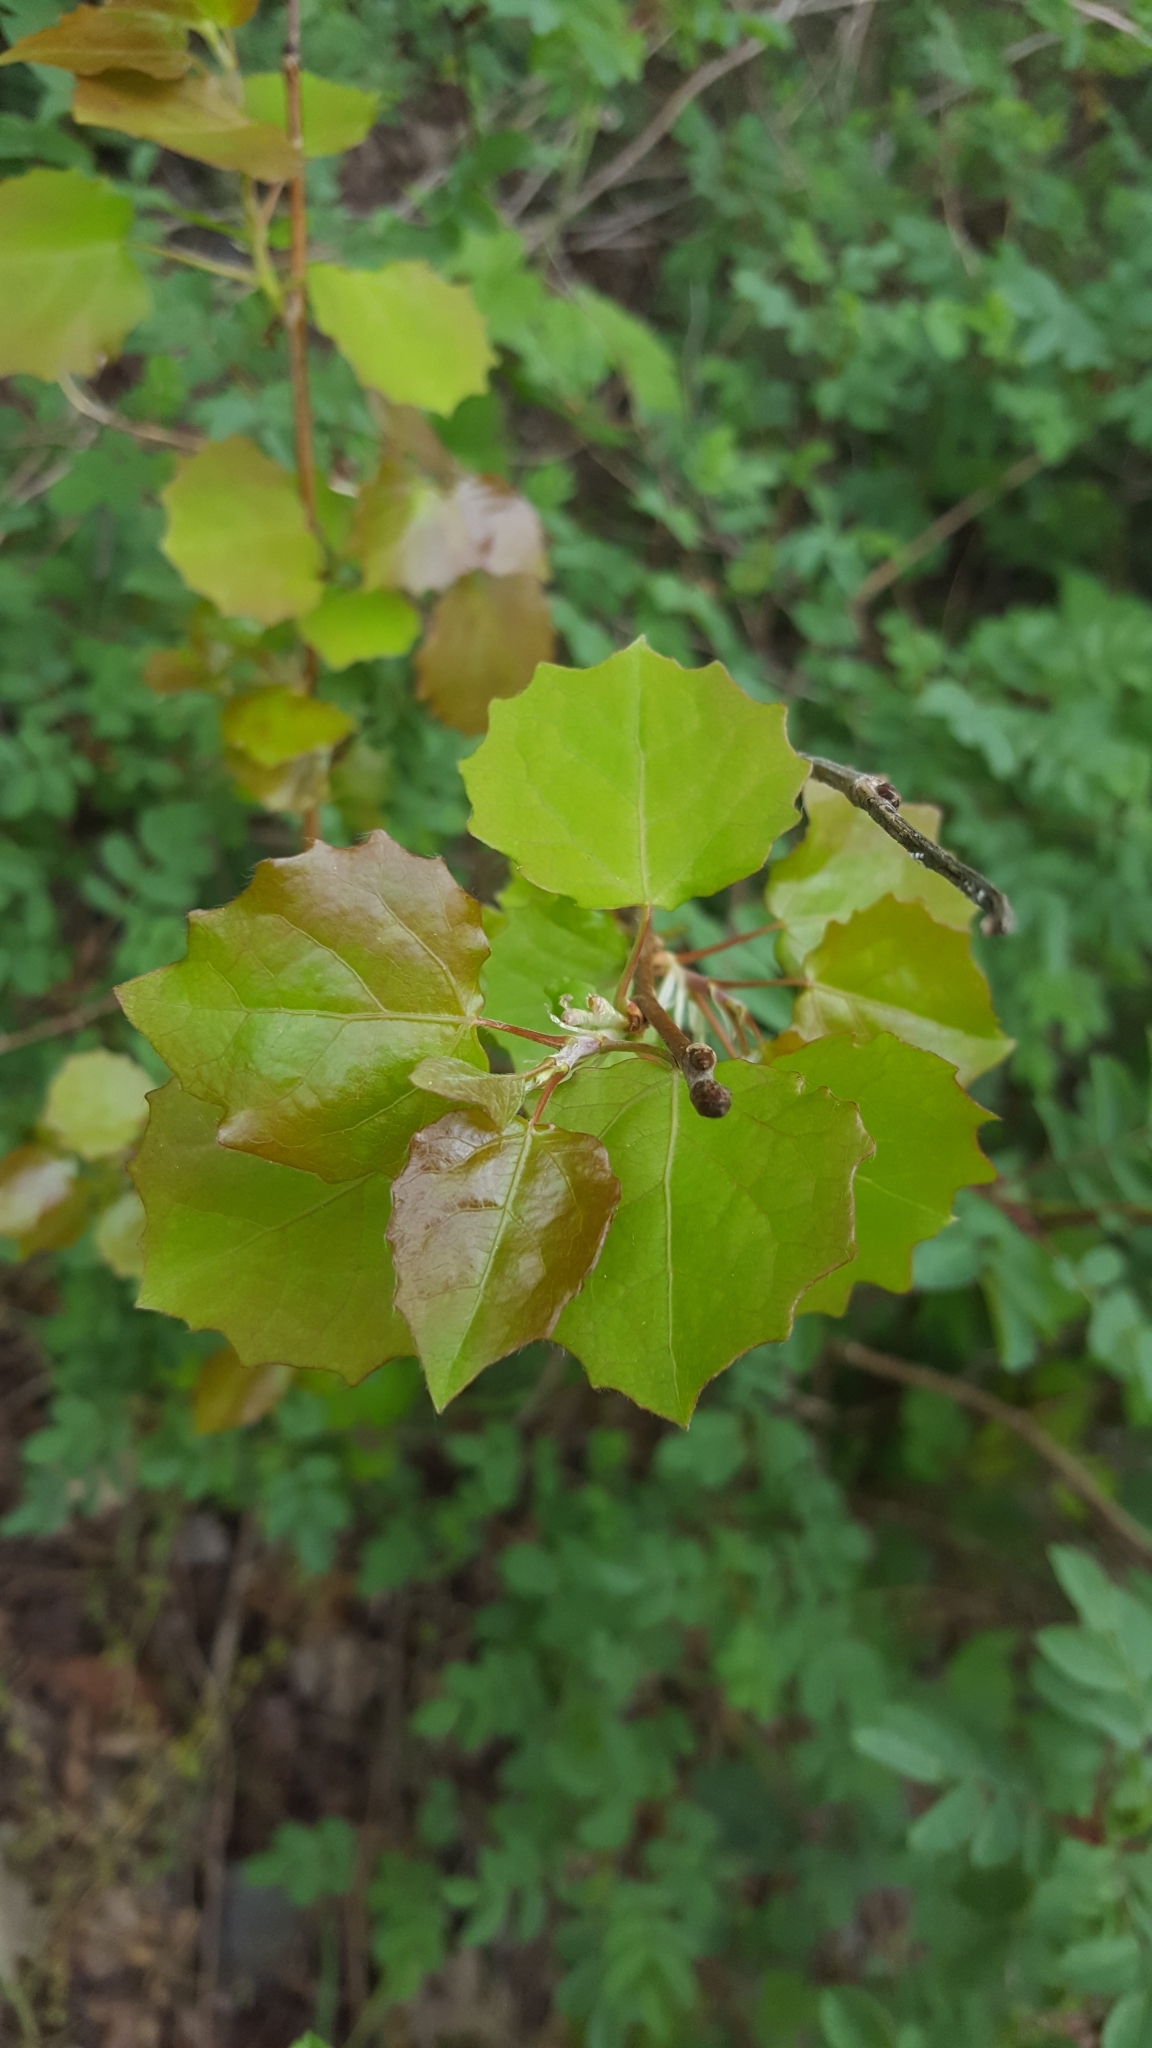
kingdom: Plantae
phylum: Tracheophyta
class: Magnoliopsida
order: Malpighiales
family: Salicaceae
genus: Populus
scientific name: Populus tremula
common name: European aspen
